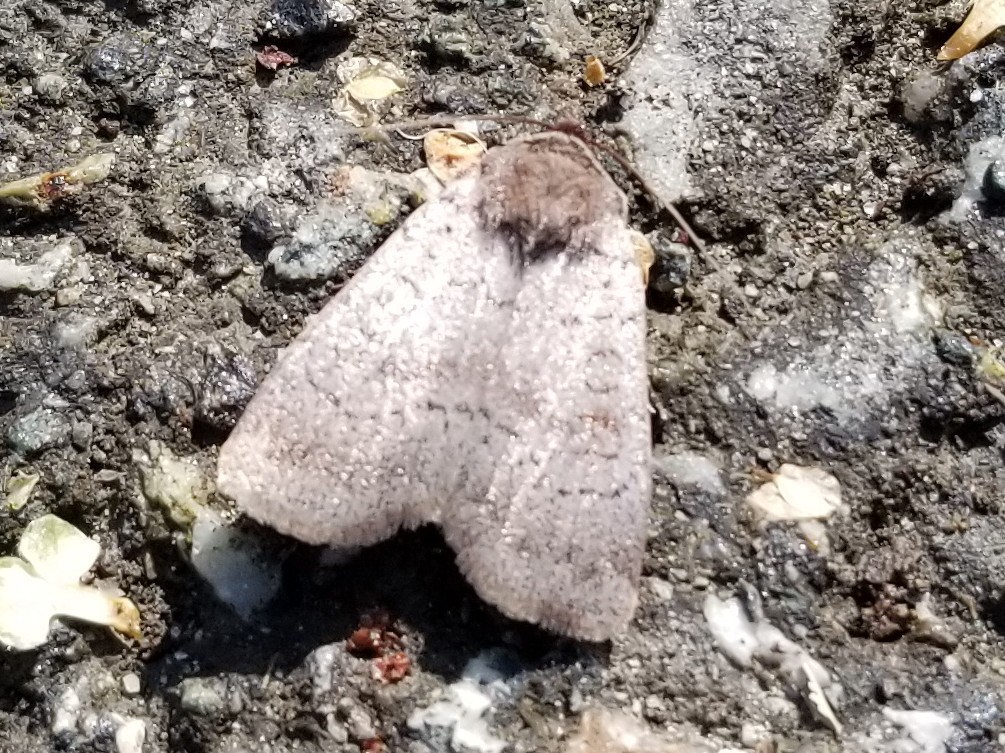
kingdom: Animalia
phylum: Arthropoda
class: Insecta
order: Lepidoptera
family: Noctuidae
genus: Protolampra
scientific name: Protolampra rufipectus
